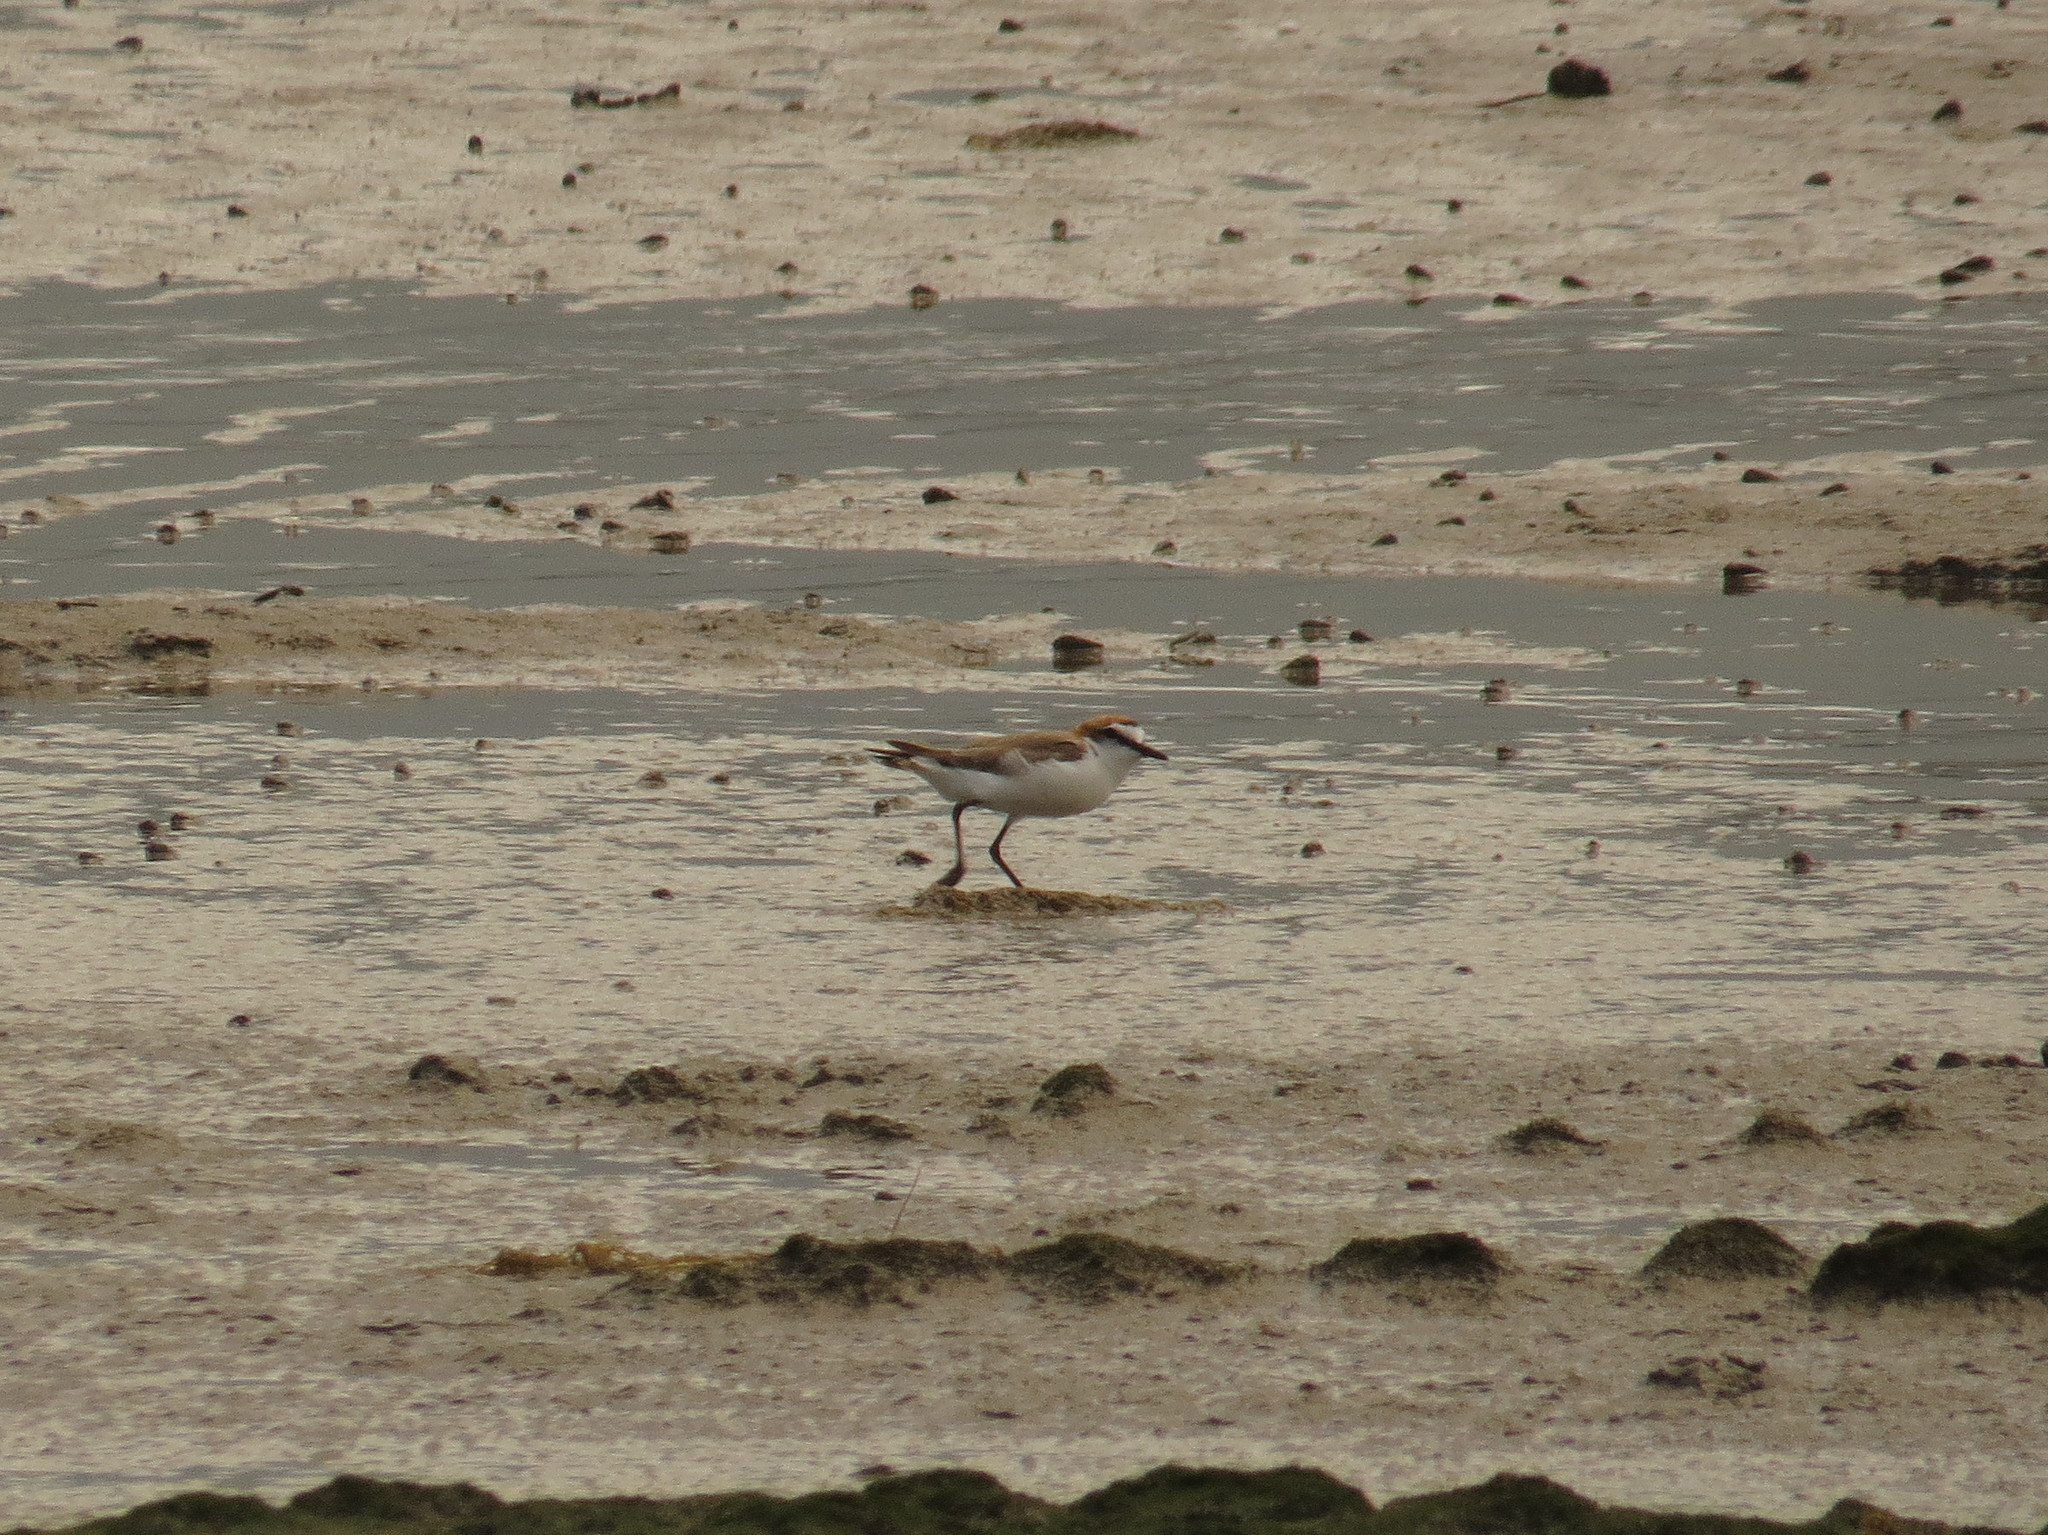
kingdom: Animalia
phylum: Chordata
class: Aves
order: Charadriiformes
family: Charadriidae
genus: Anarhynchus
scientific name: Anarhynchus
